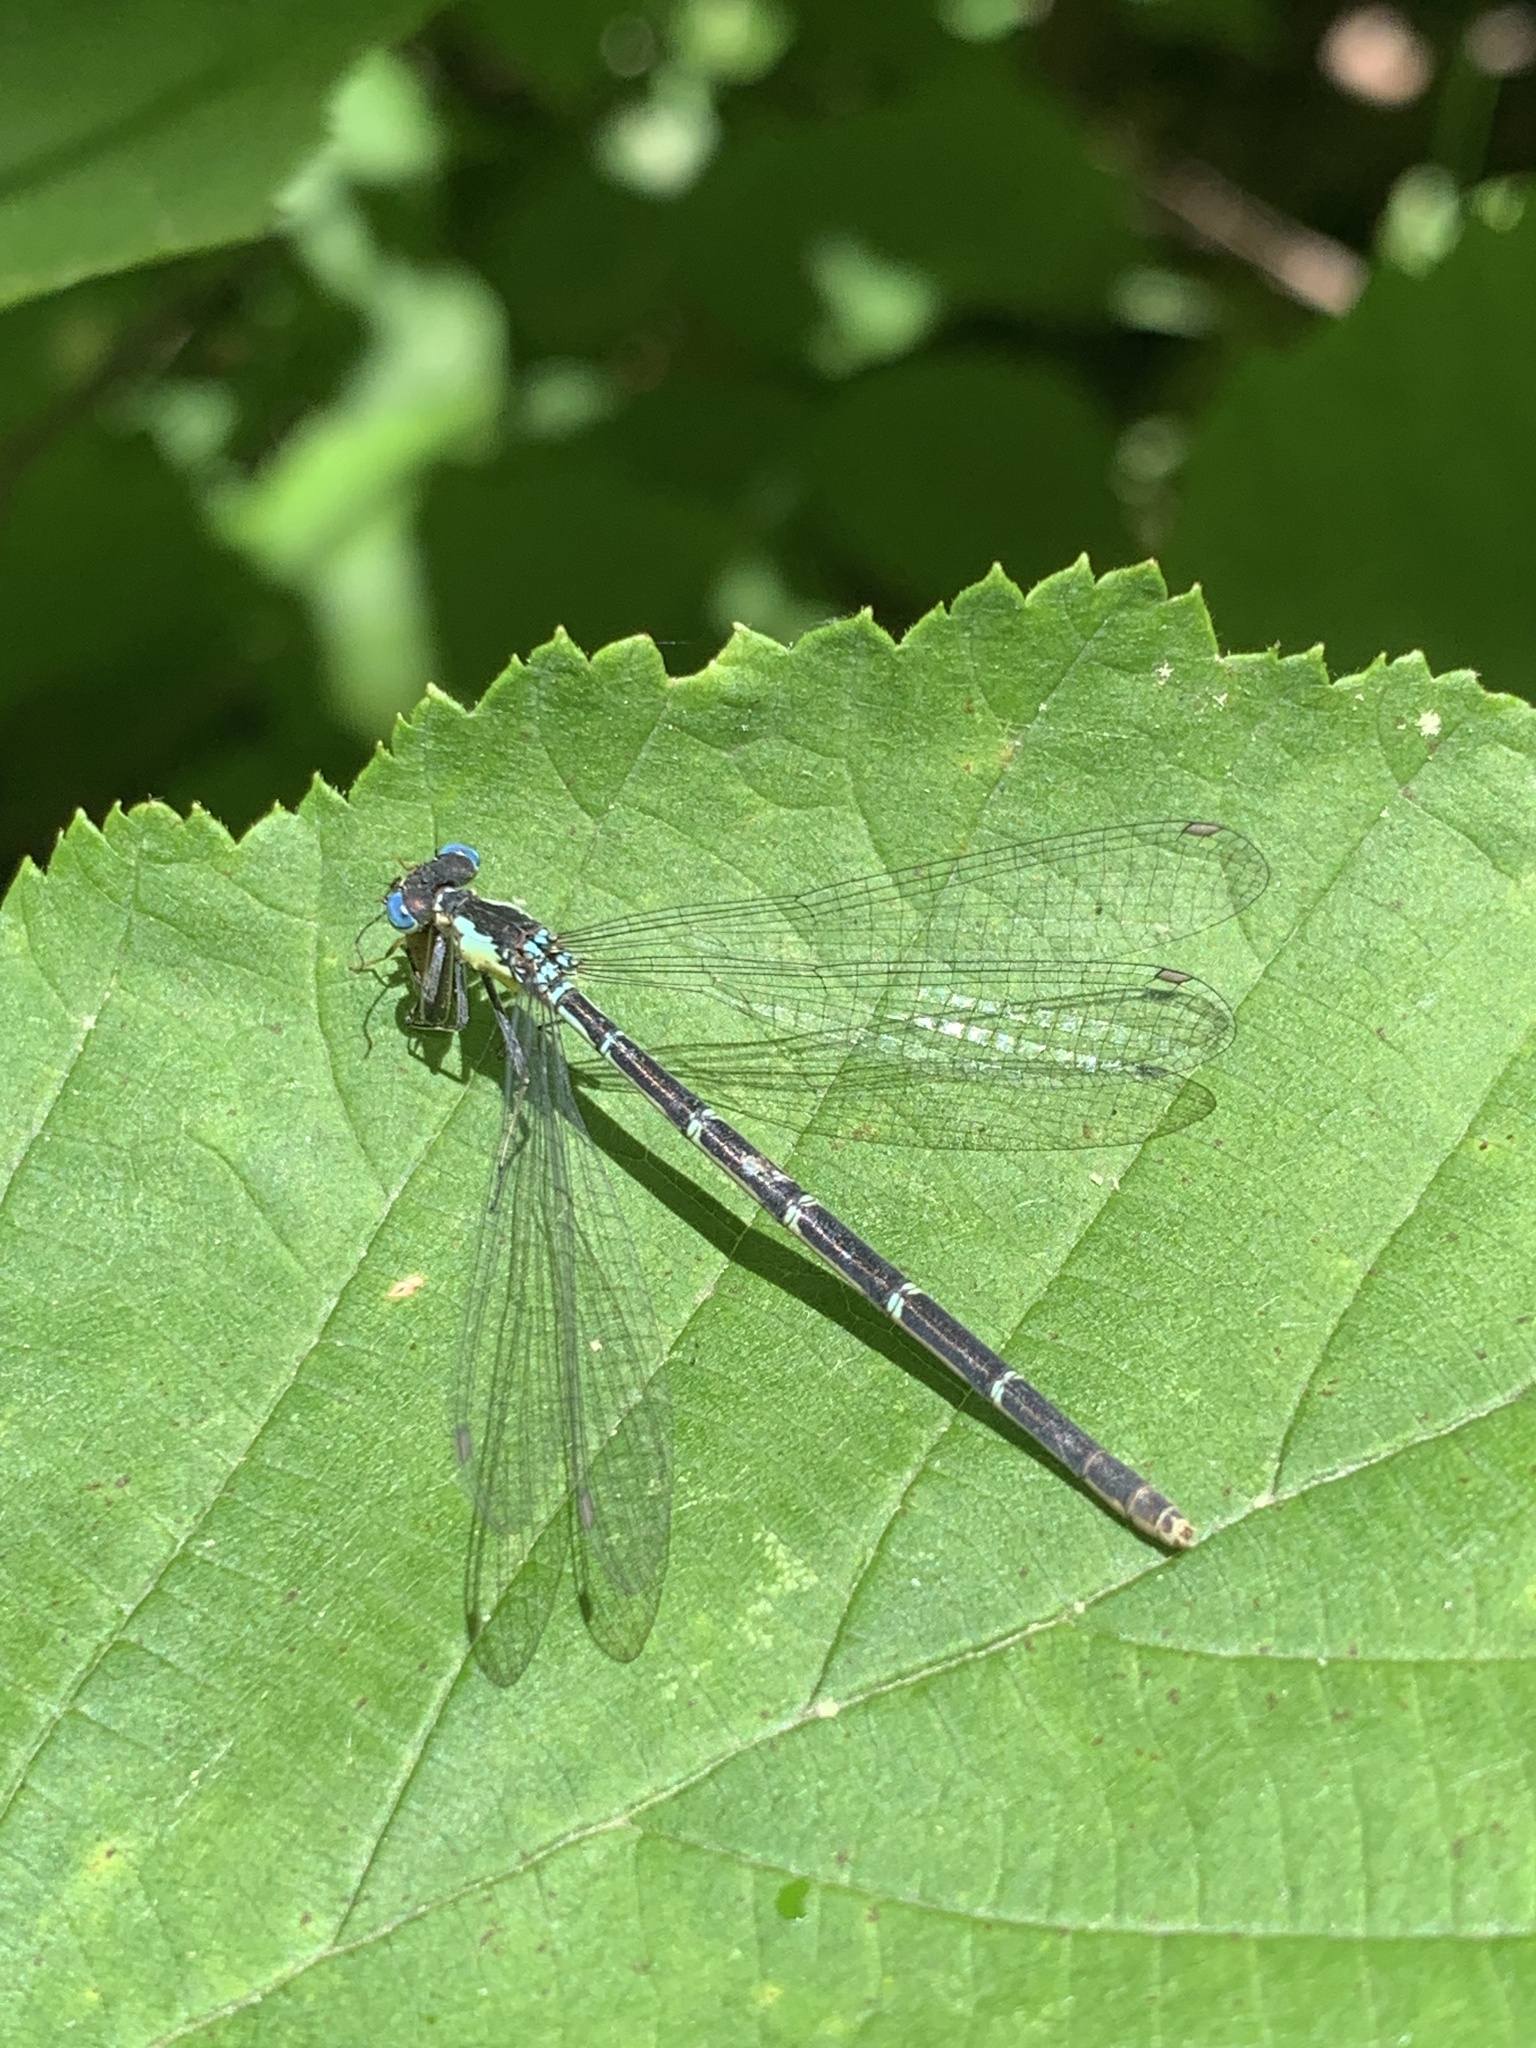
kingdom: Animalia
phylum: Arthropoda
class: Insecta
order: Odonata
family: Coenagrionidae
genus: Chromagrion
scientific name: Chromagrion conditum
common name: Aurora damsel
